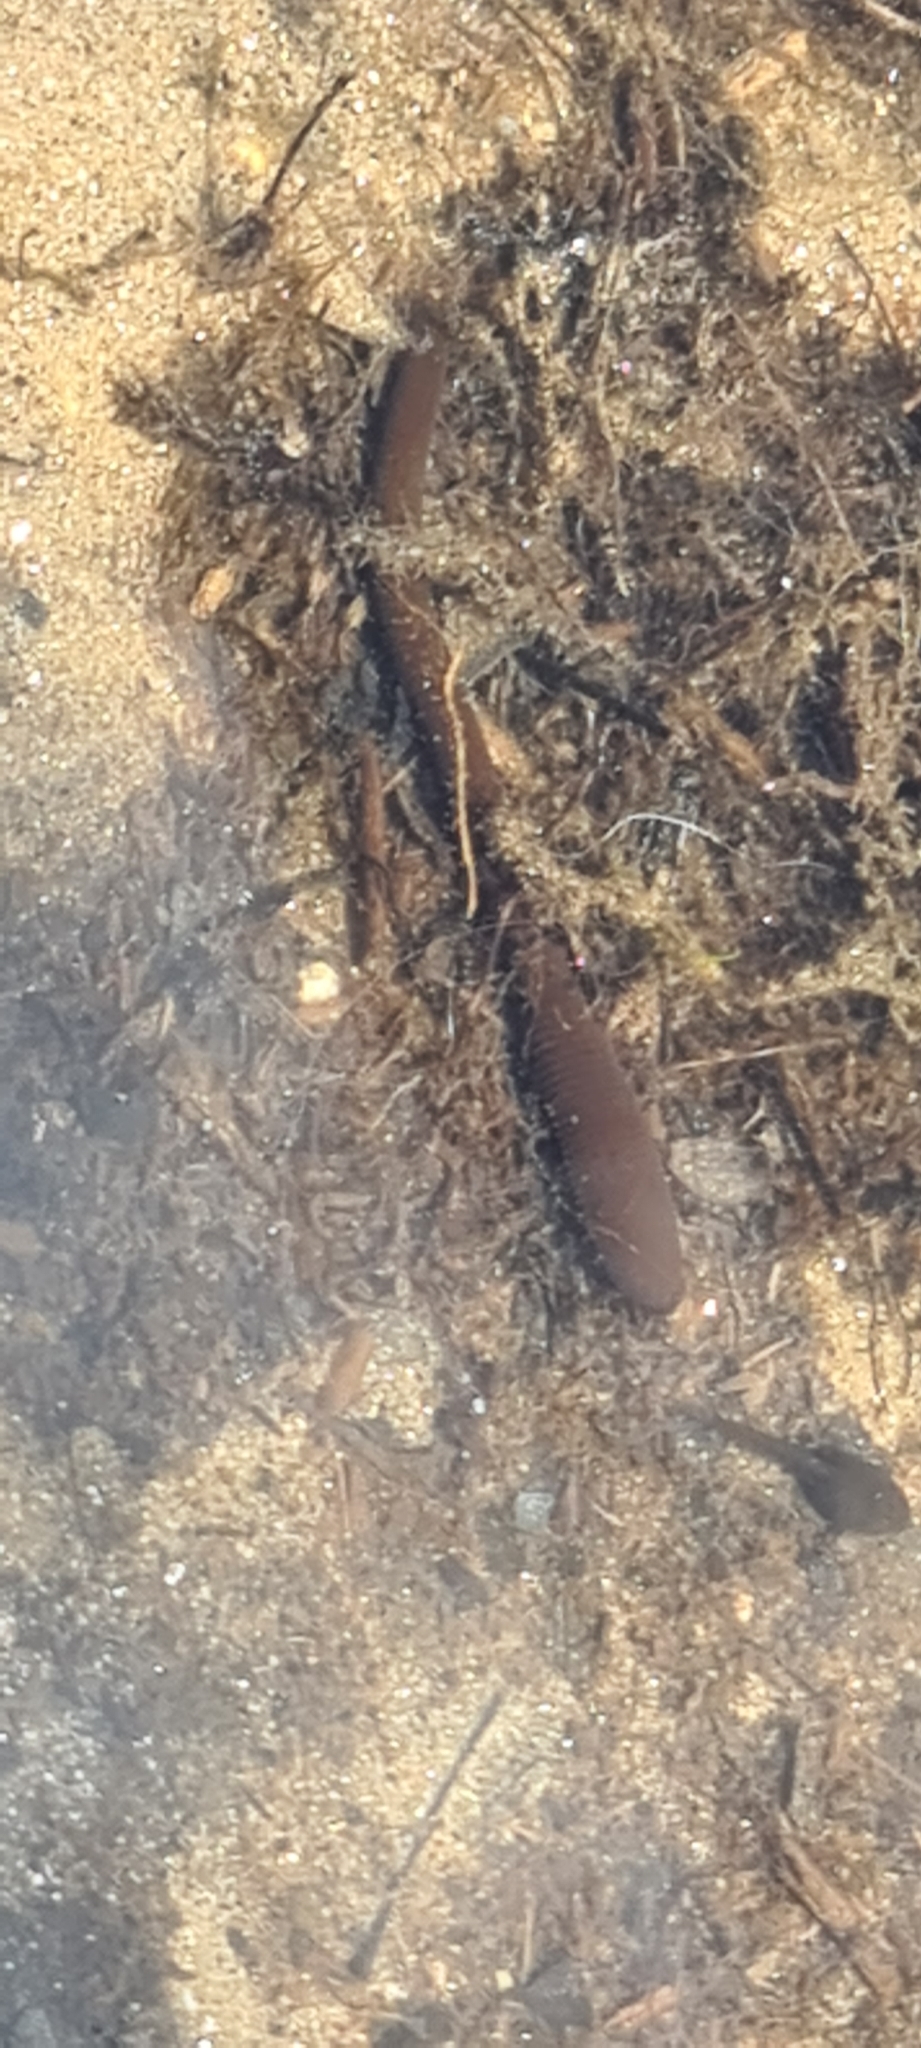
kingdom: Animalia
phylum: Annelida
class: Clitellata
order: Arhynchobdellida
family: Haemopidae
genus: Haemopis
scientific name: Haemopis sanguisuga
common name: Horse leech
